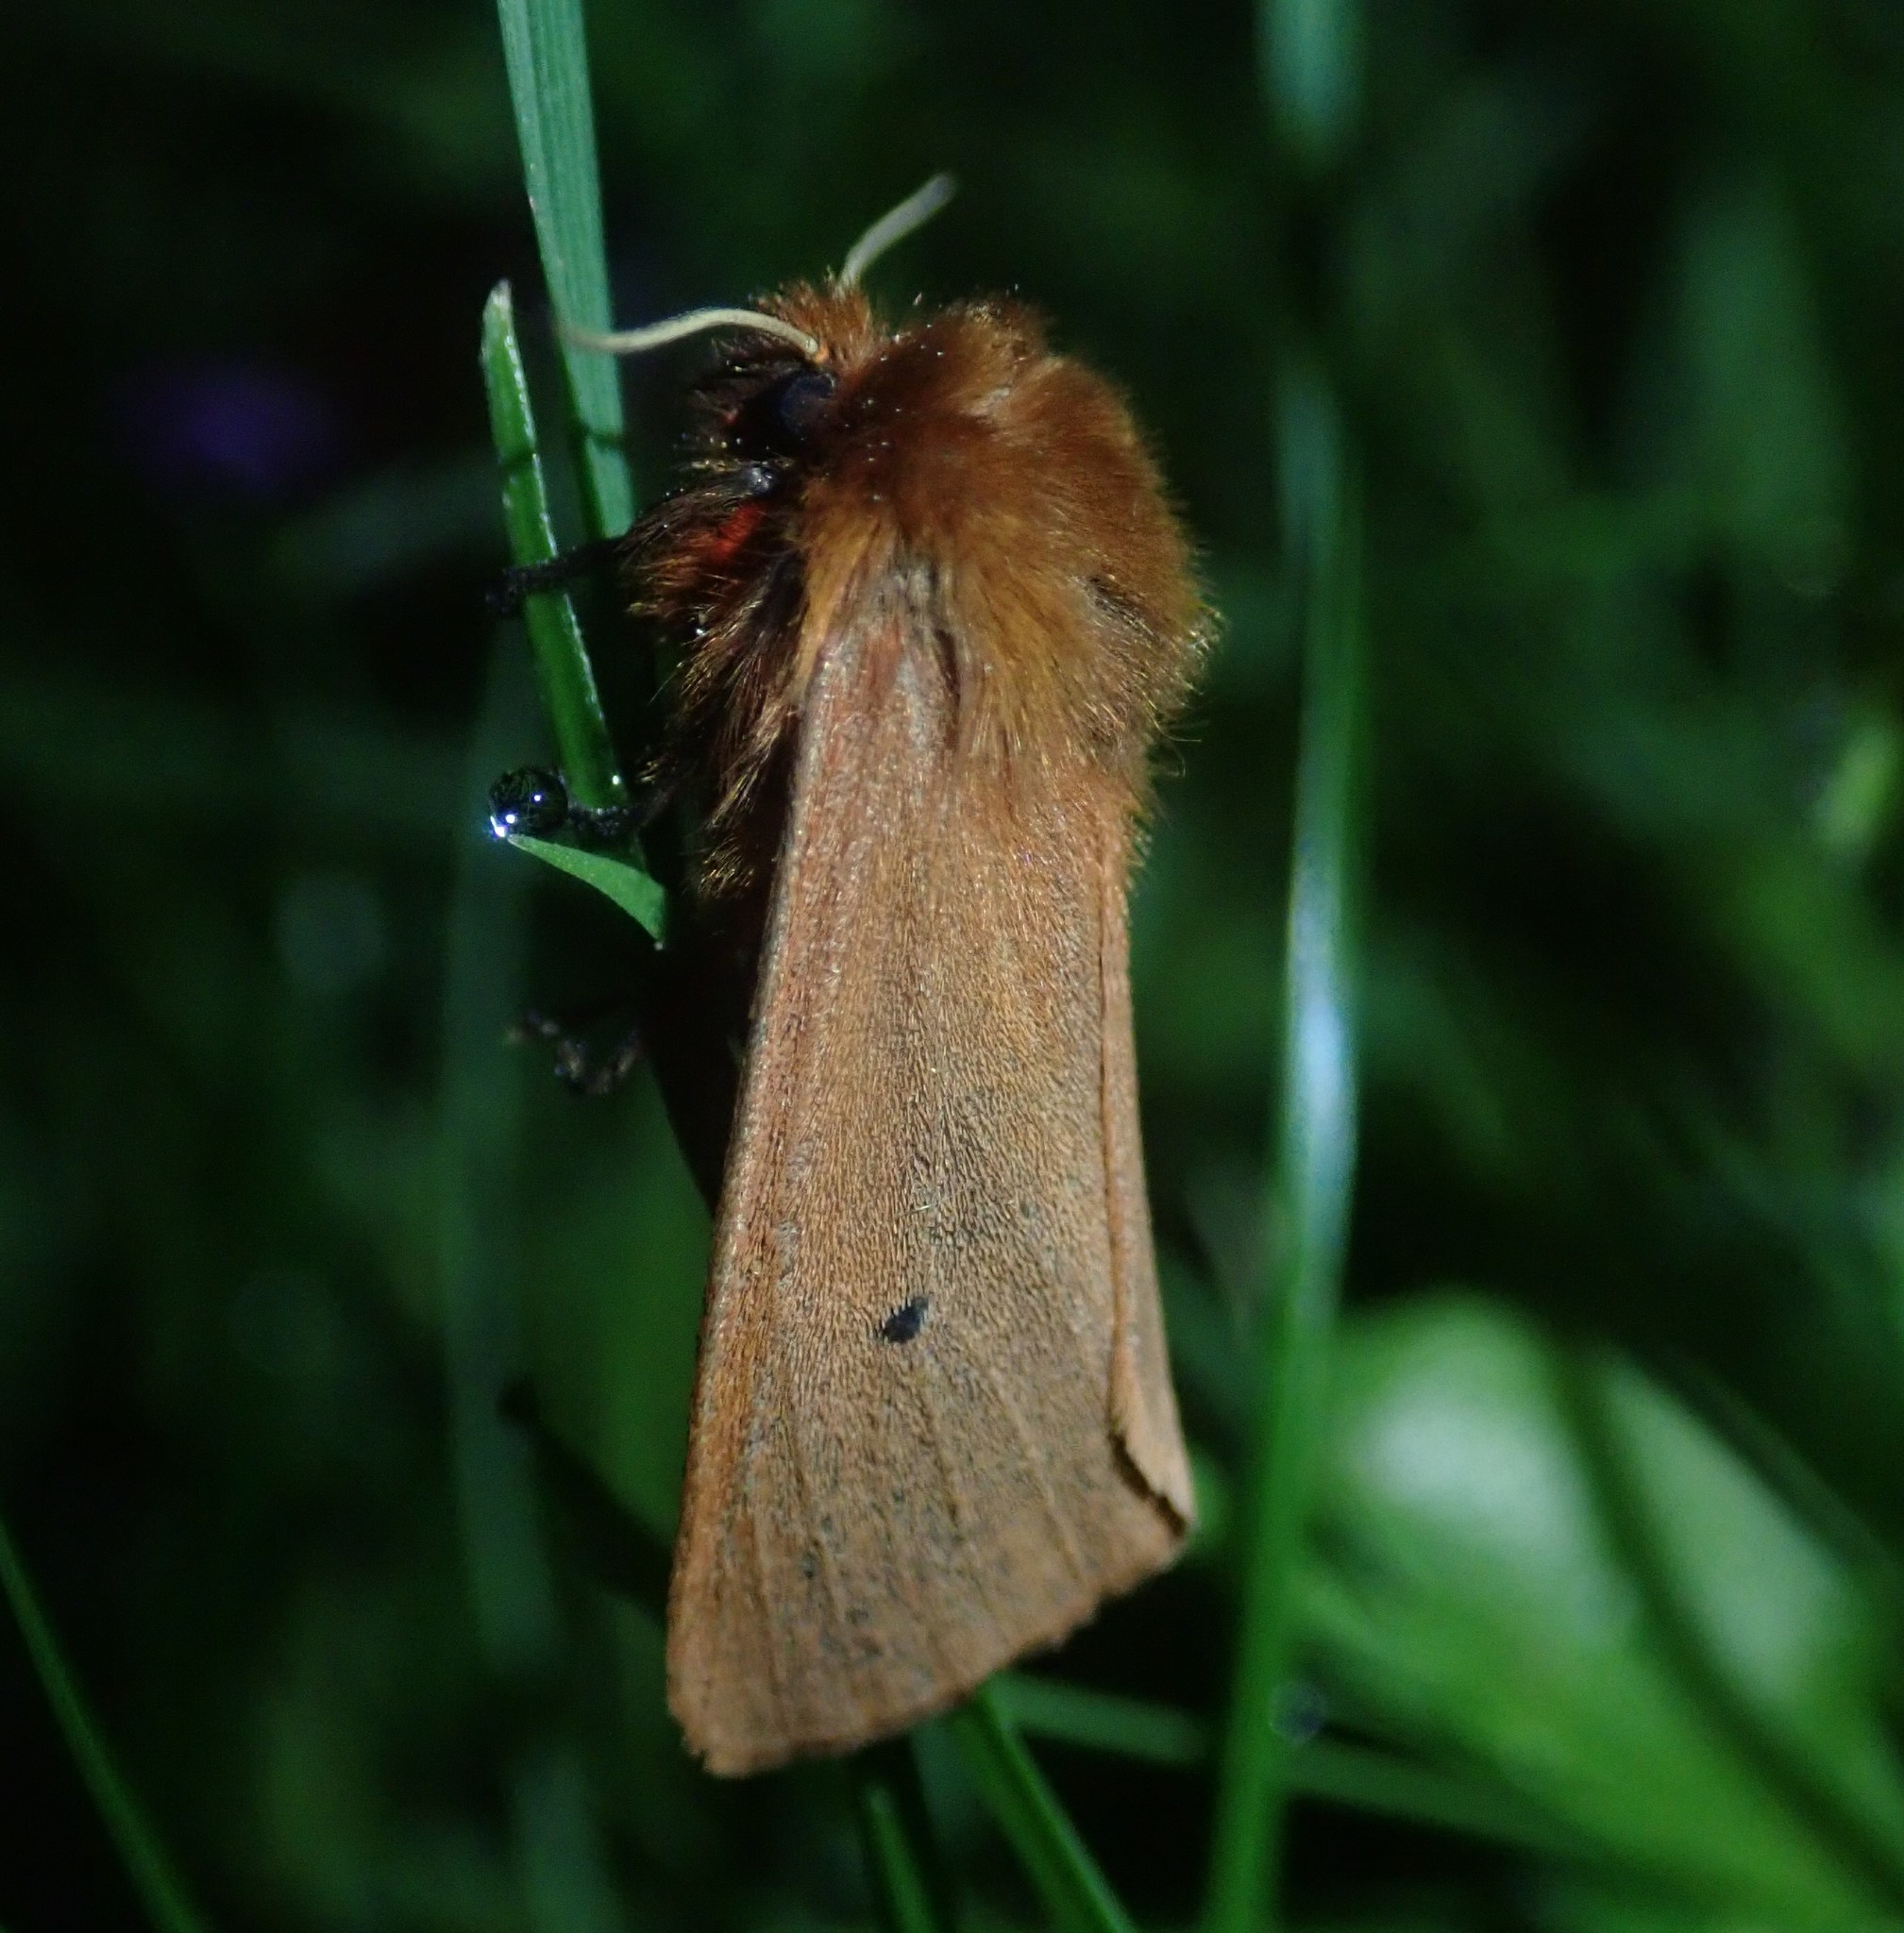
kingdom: Animalia
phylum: Arthropoda
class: Insecta
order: Lepidoptera
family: Erebidae
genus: Phragmatobia
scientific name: Phragmatobia fuliginosa
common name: Ruby tiger
